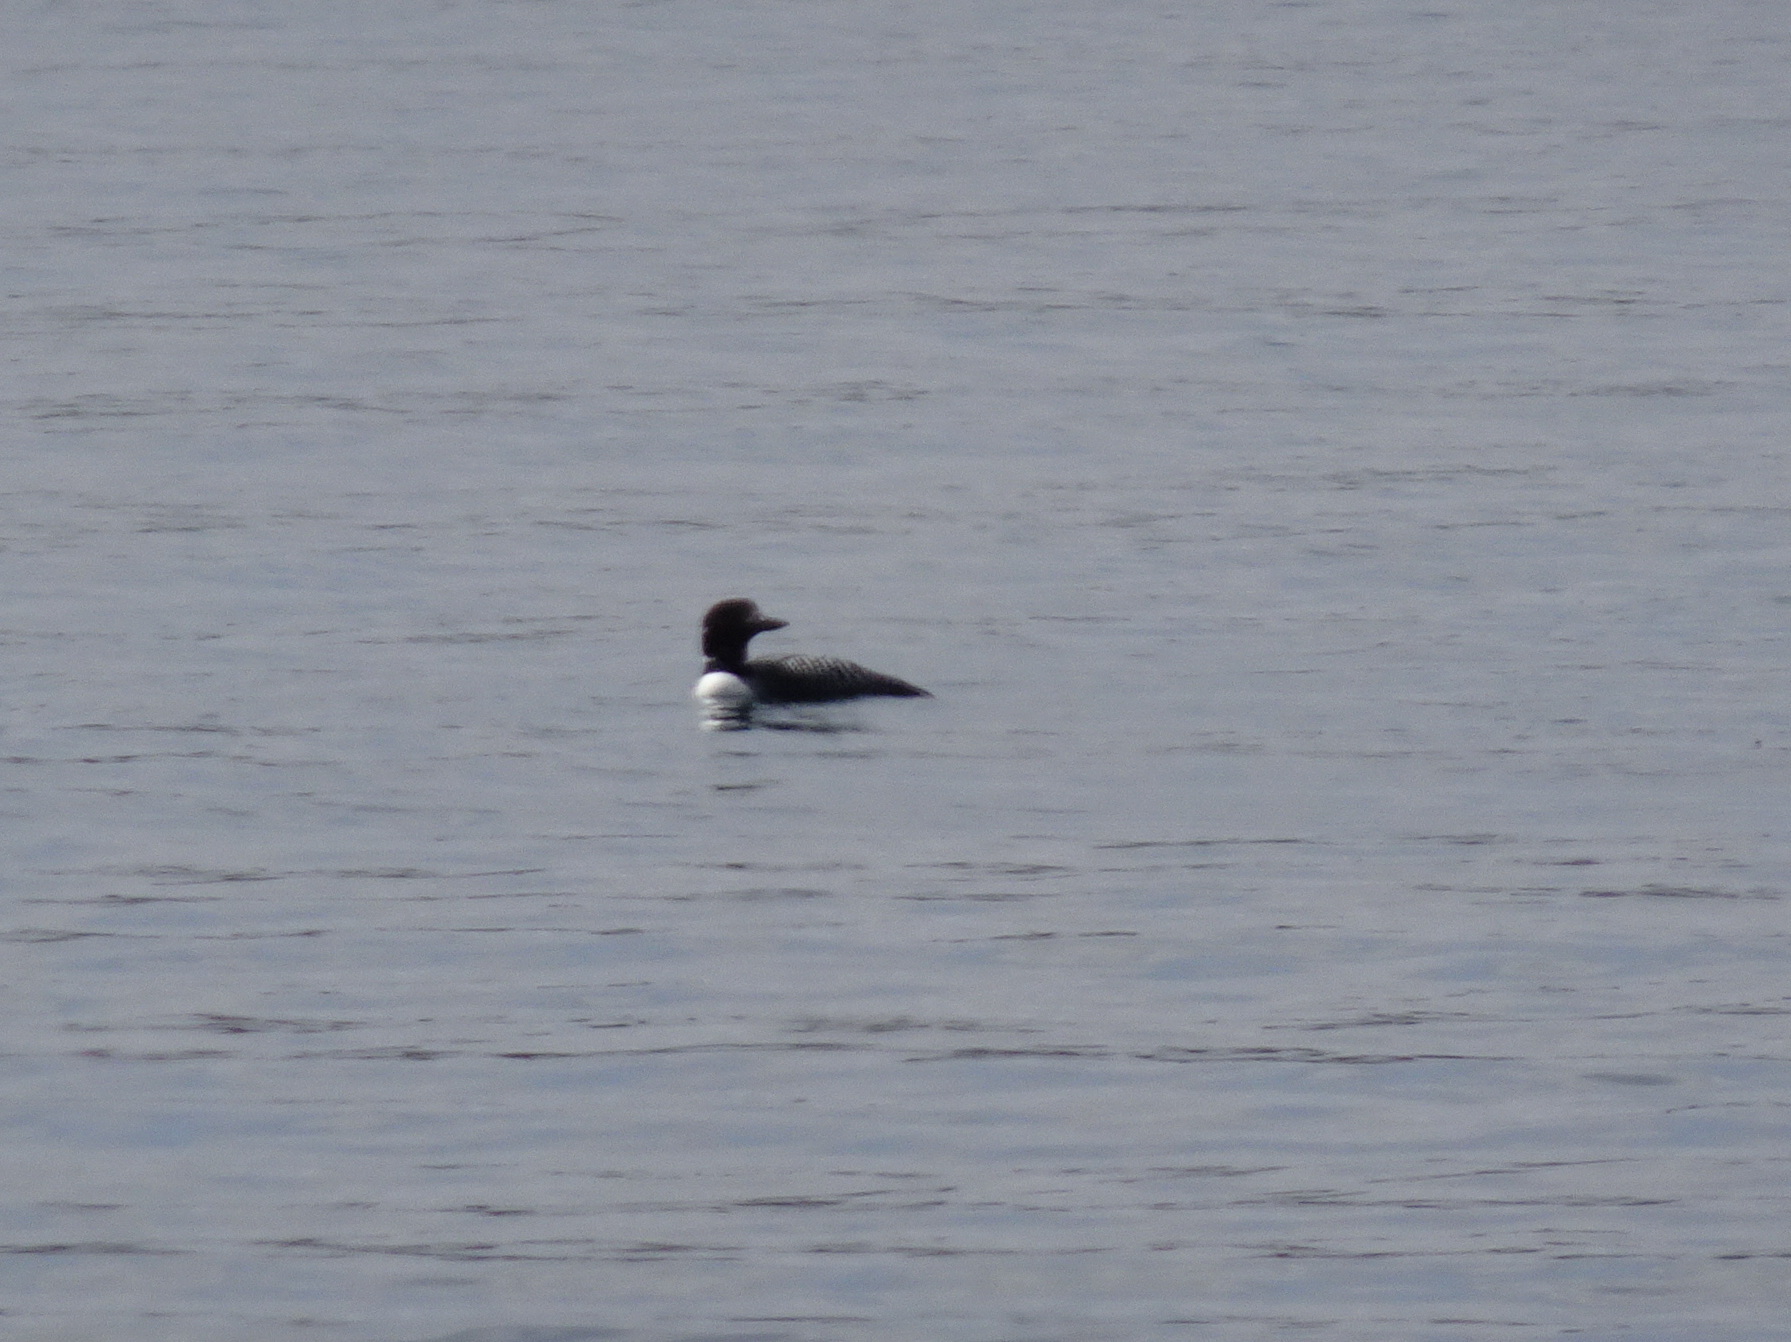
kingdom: Animalia
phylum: Chordata
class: Aves
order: Gaviiformes
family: Gaviidae
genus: Gavia
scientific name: Gavia immer
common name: Common loon
